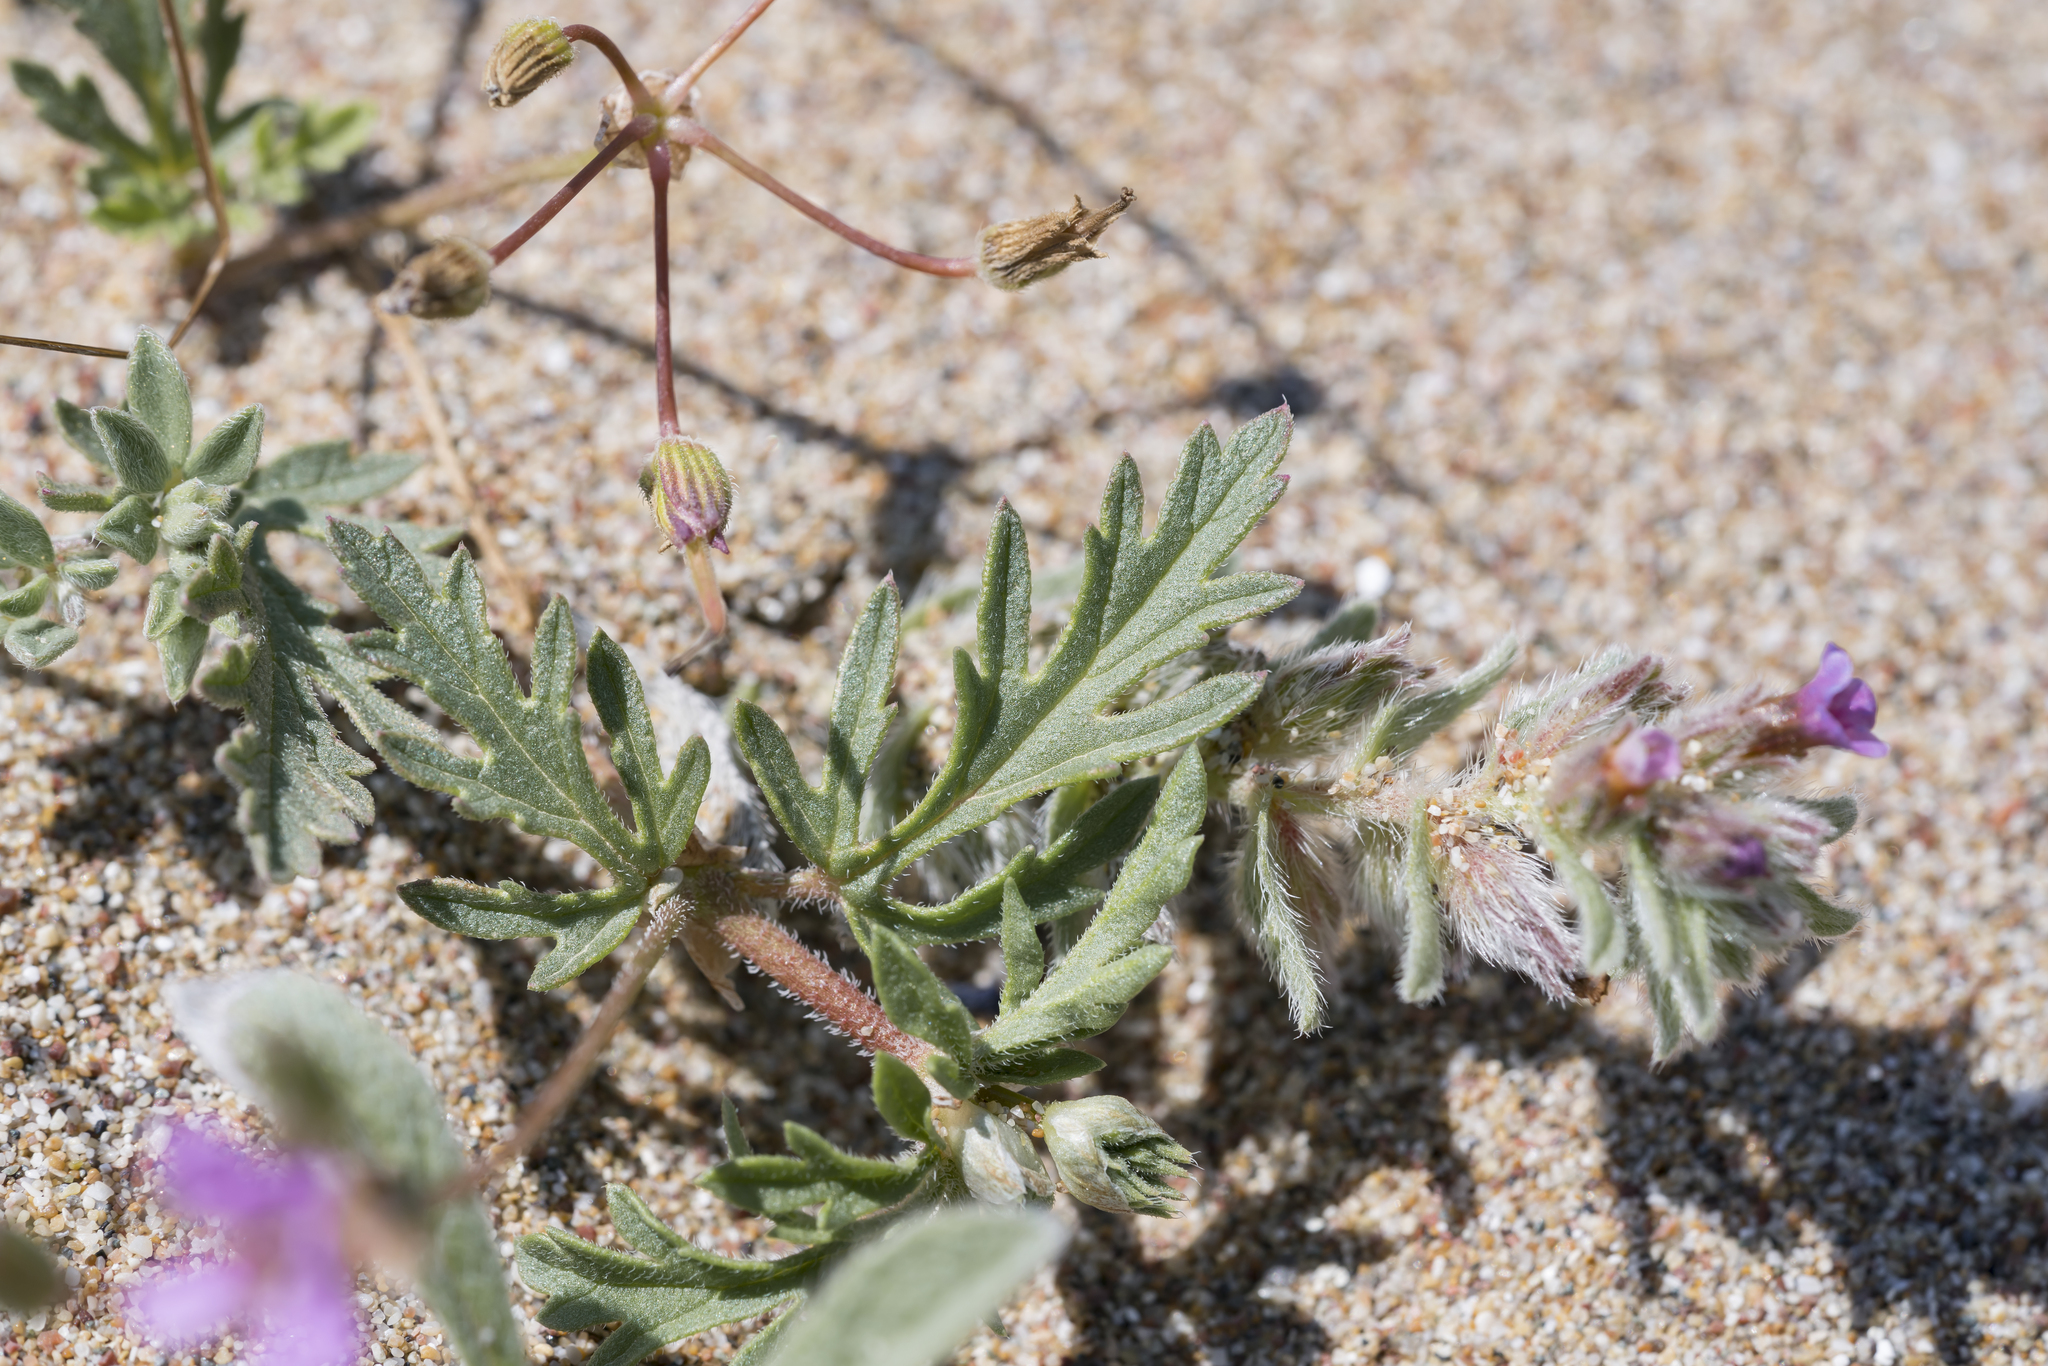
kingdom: Plantae
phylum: Tracheophyta
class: Magnoliopsida
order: Geraniales
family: Geraniaceae
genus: Erodium
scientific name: Erodium laciniatum
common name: Cutleaf stork's bill
